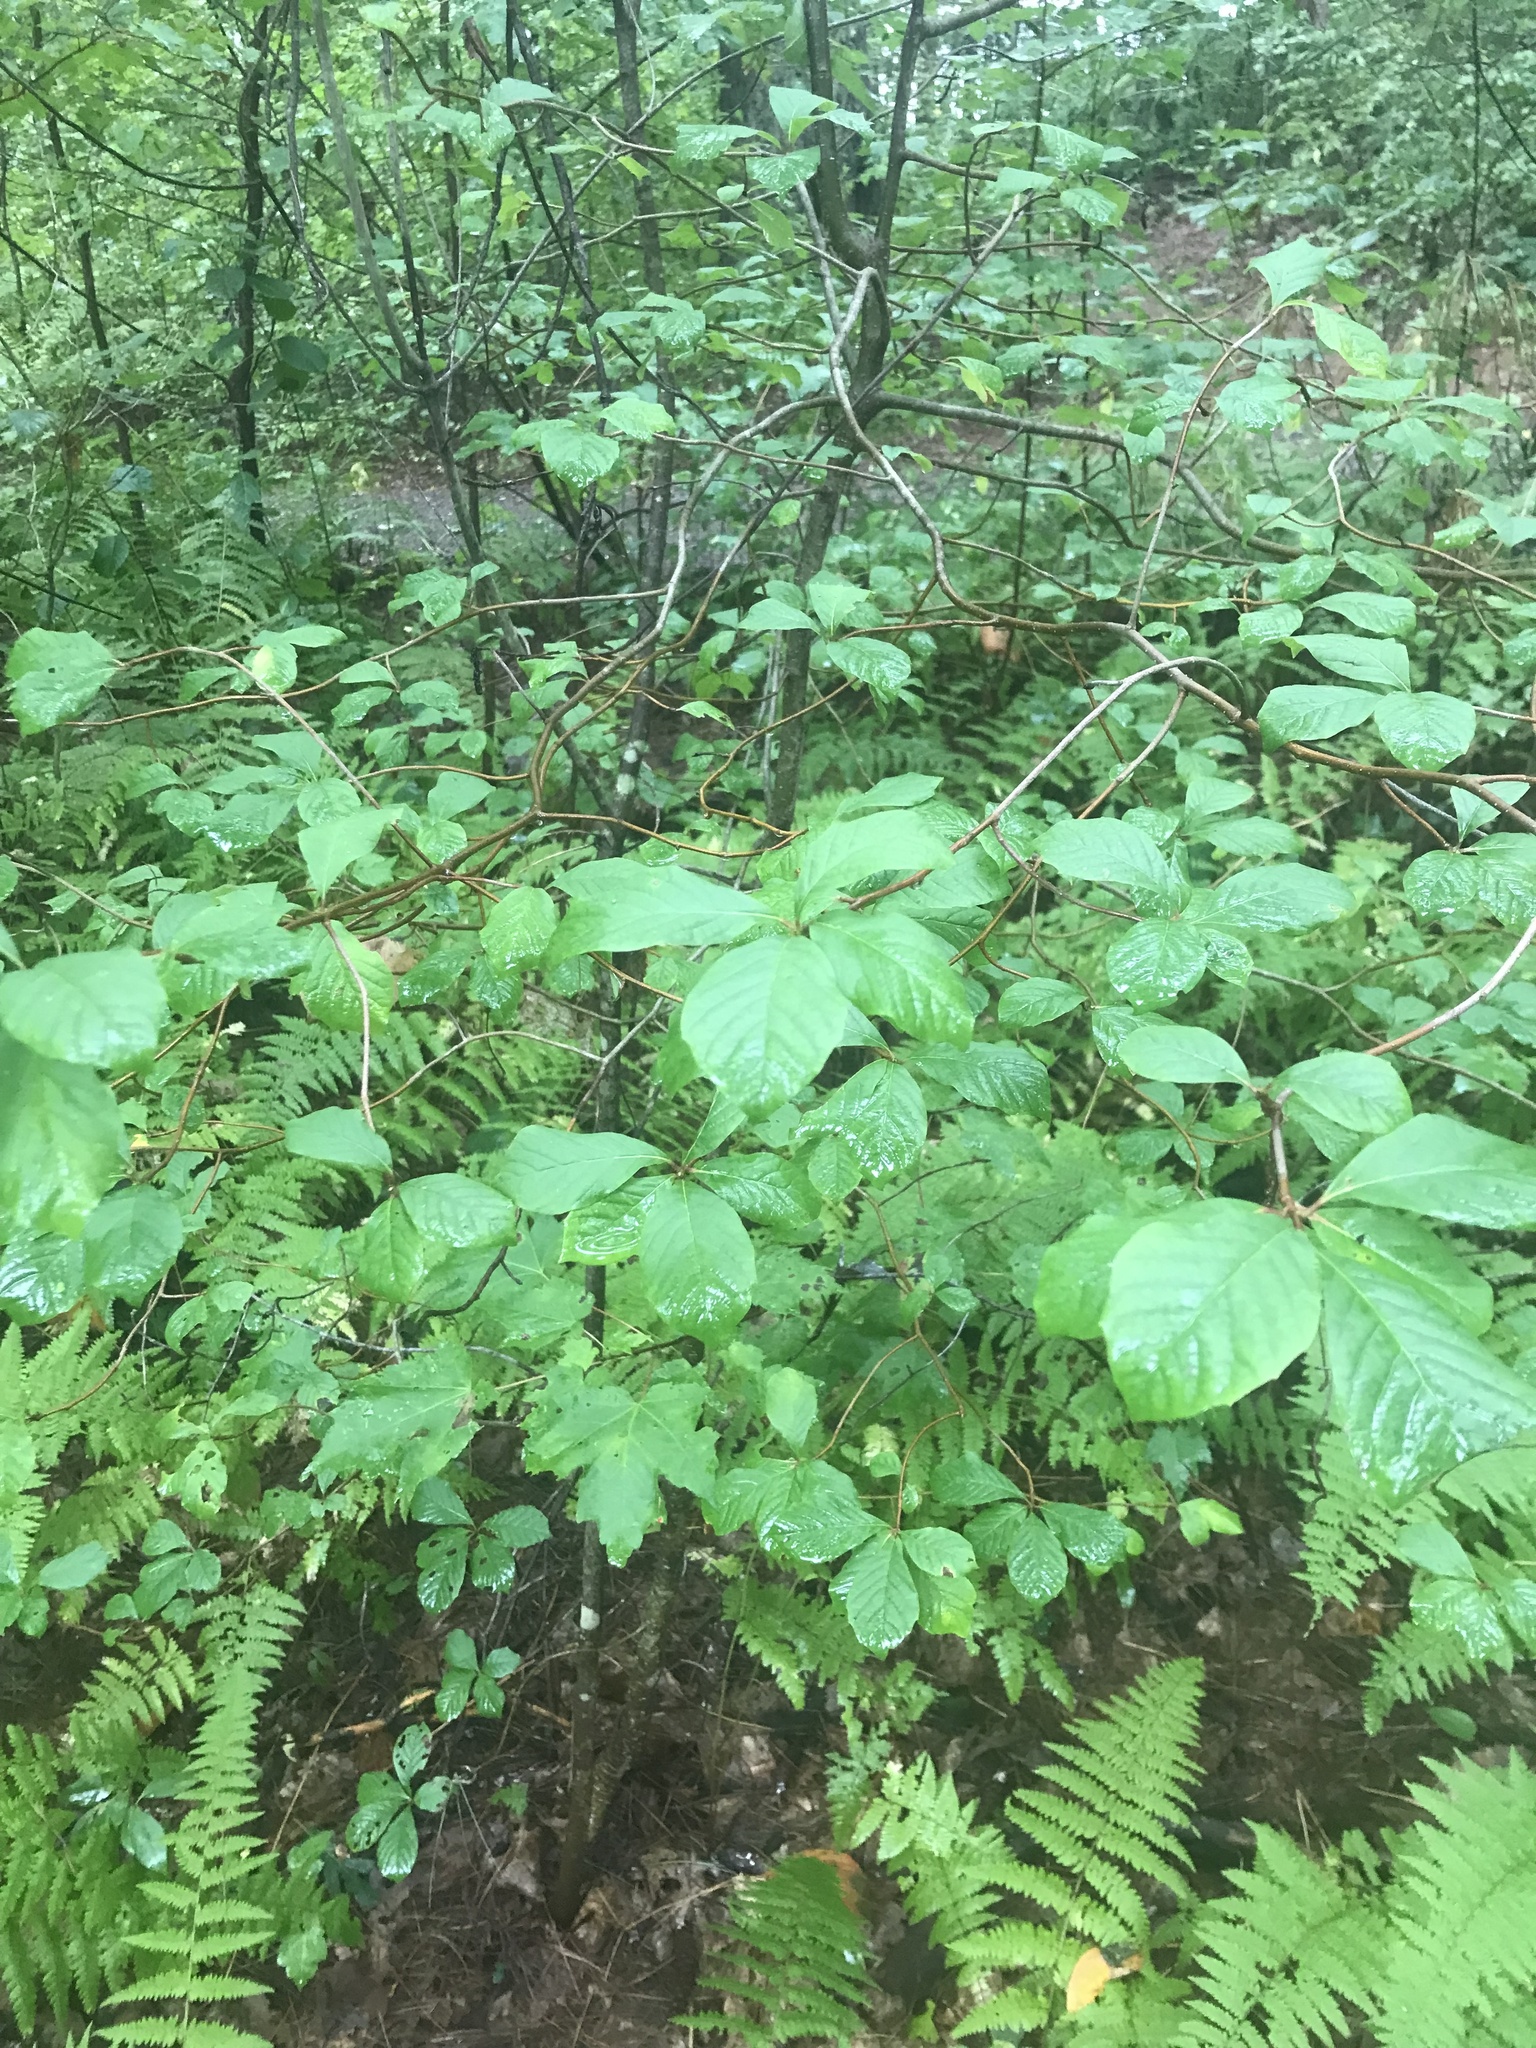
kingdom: Plantae
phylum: Tracheophyta
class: Magnoliopsida
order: Rosales
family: Rhamnaceae
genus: Frangula
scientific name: Frangula alnus
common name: Alder buckthorn
